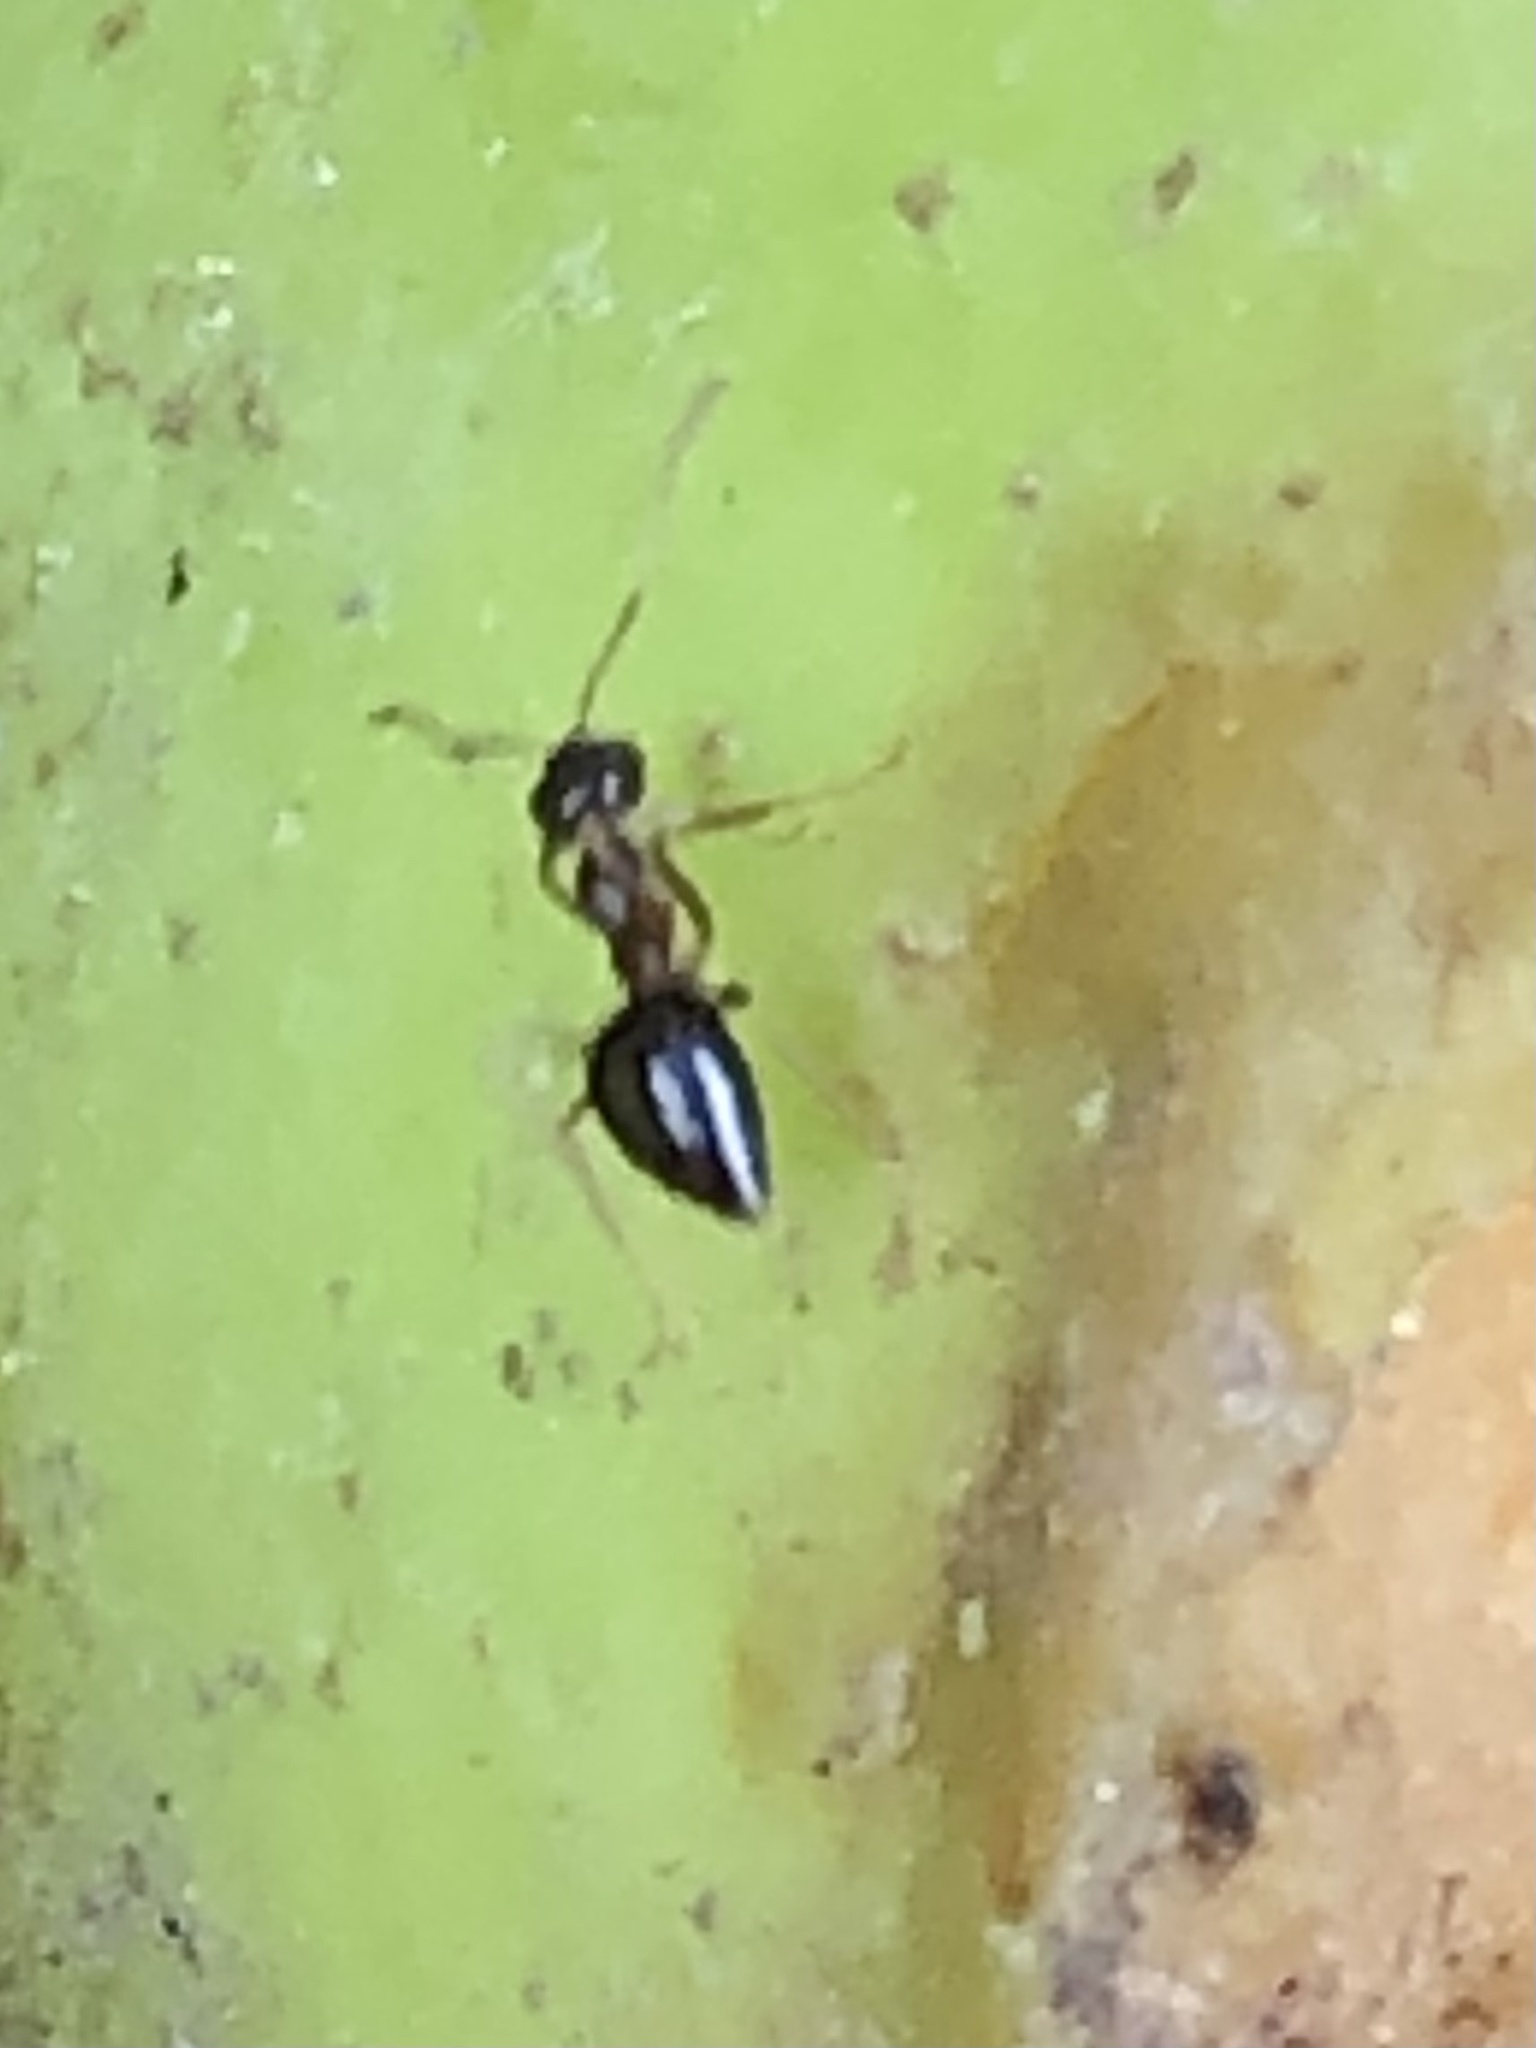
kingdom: Animalia
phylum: Arthropoda
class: Insecta
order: Hymenoptera
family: Formicidae
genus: Prenolepis
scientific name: Prenolepis imparis
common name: Small honey ant
